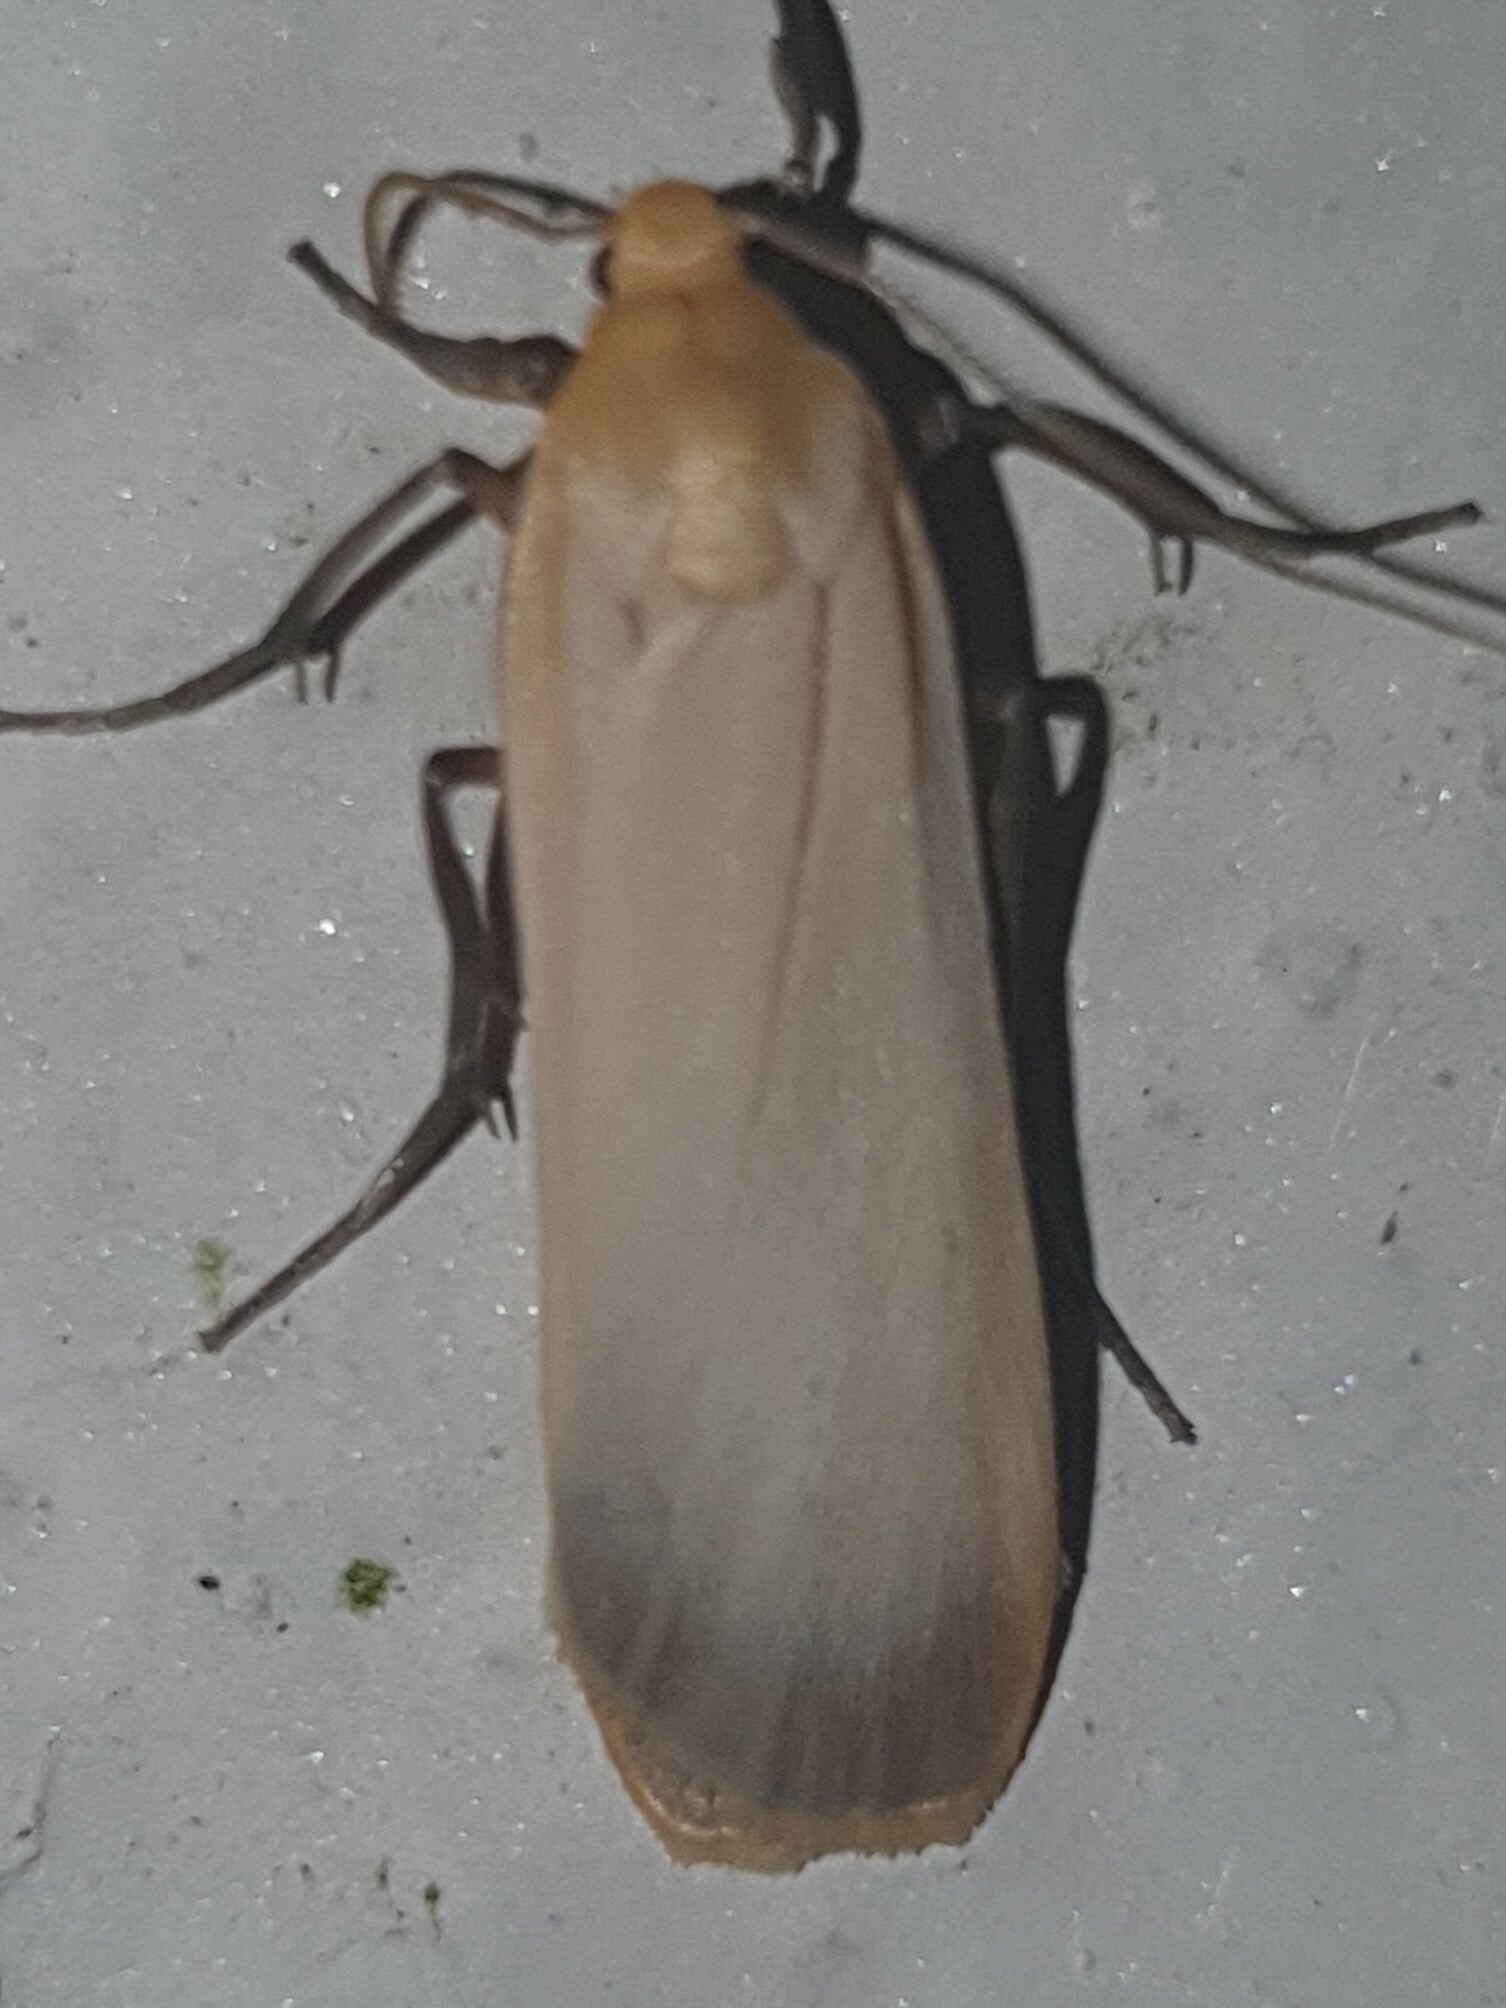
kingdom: Animalia
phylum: Arthropoda
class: Insecta
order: Lepidoptera
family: Erebidae
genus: Katha
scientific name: Katha depressa
